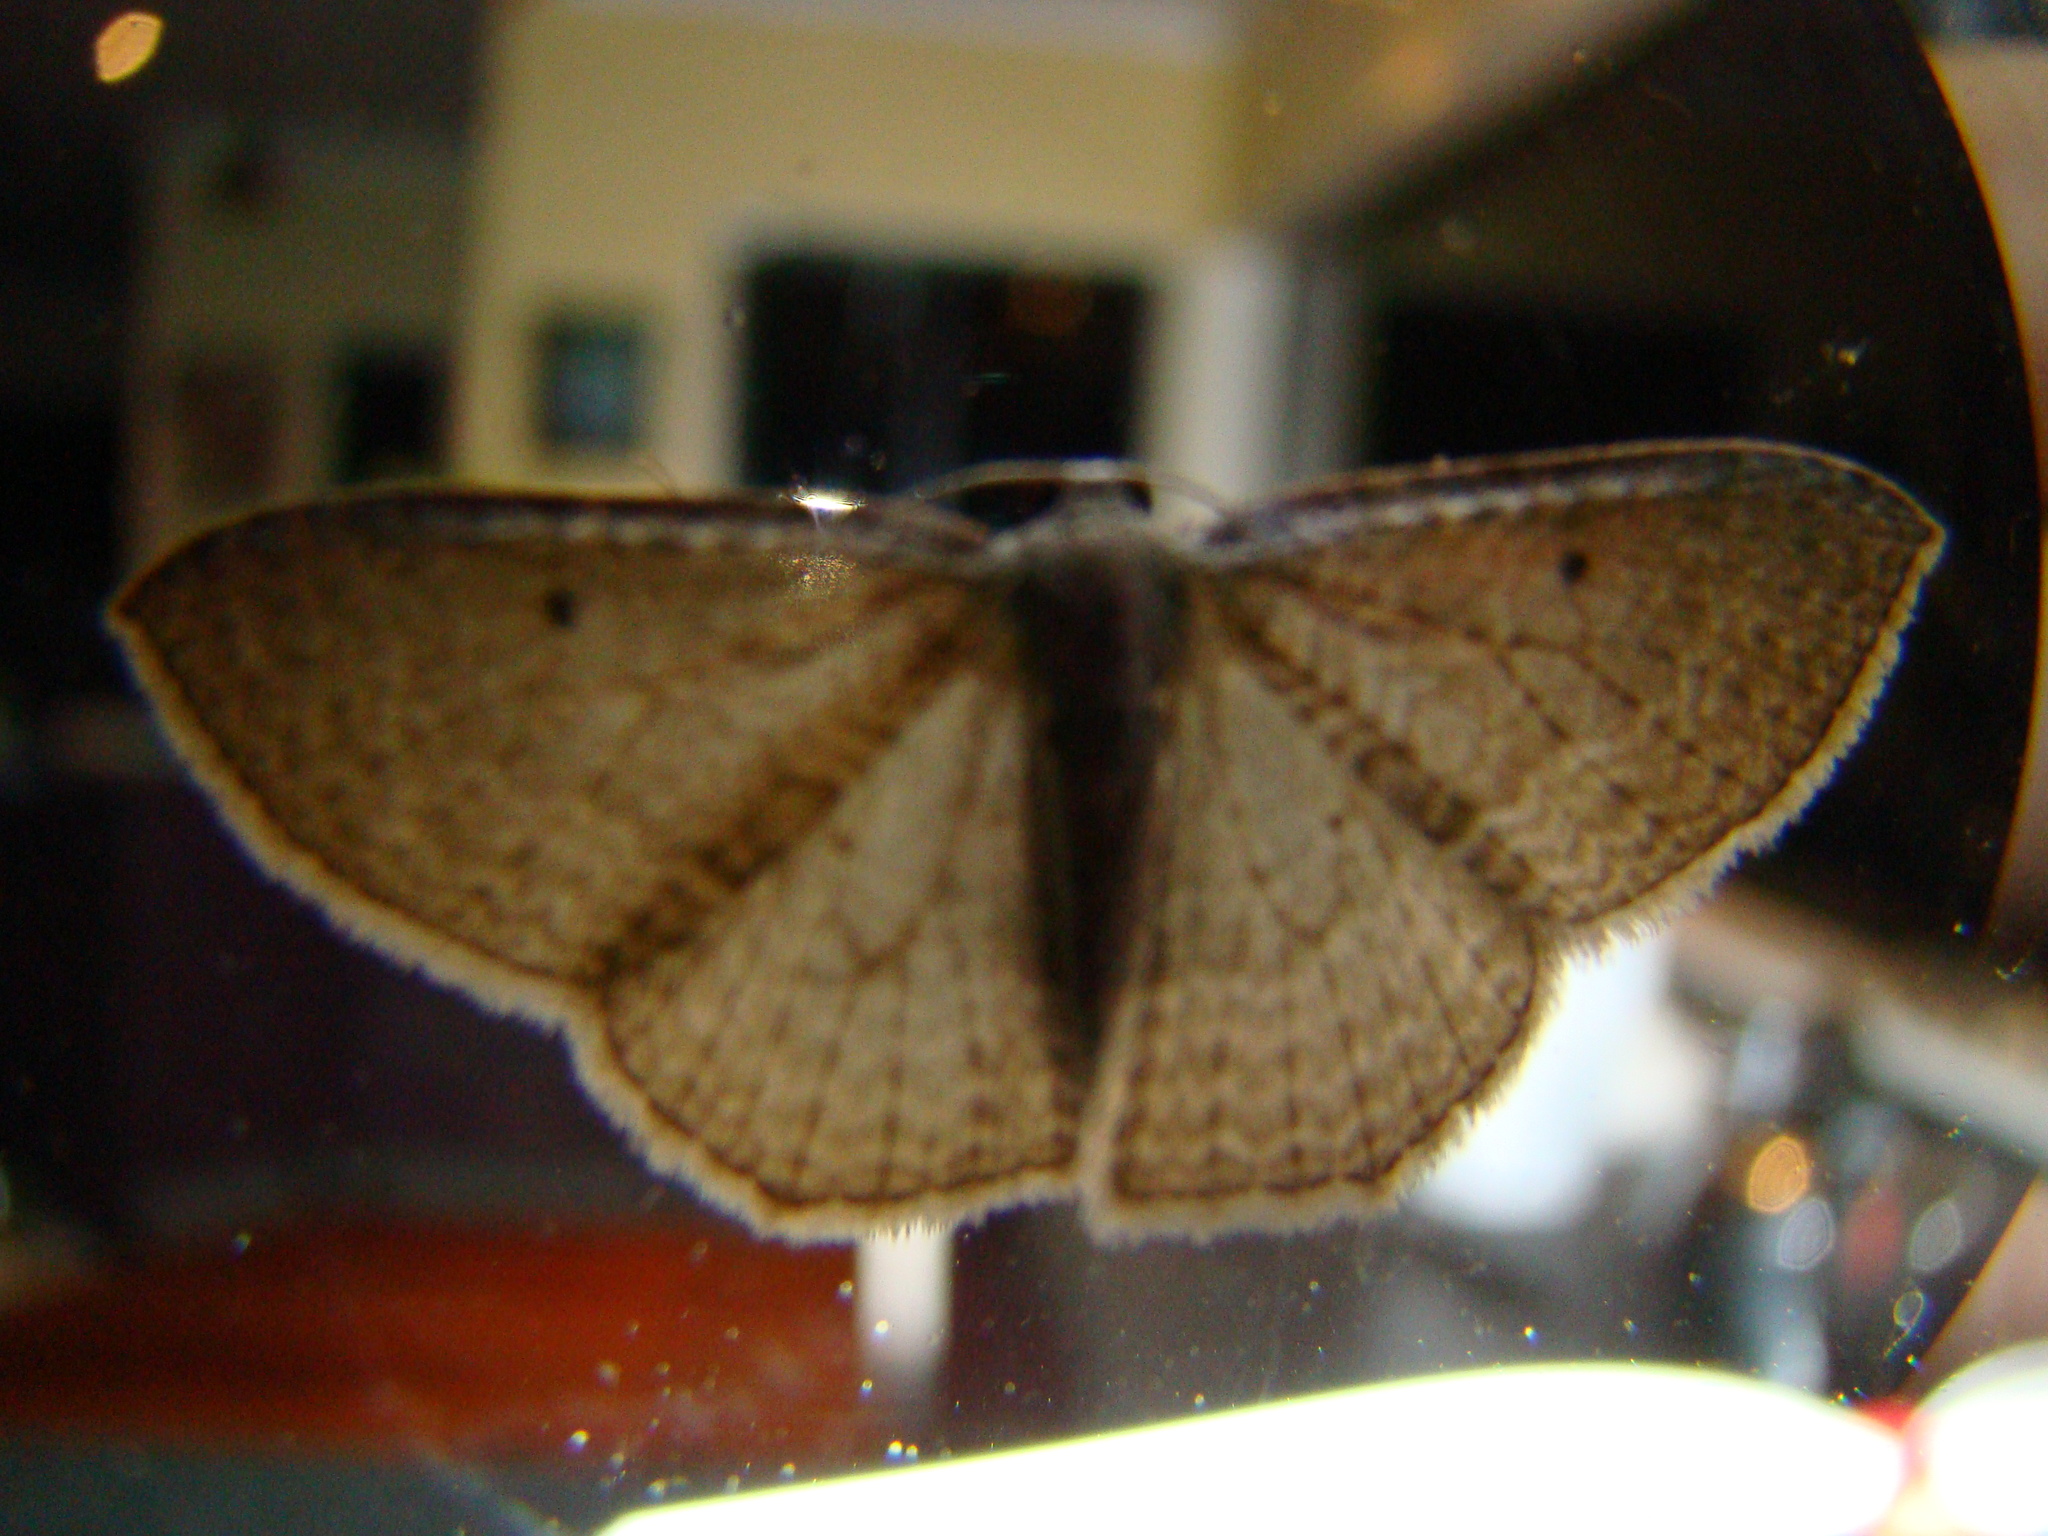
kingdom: Animalia
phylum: Arthropoda
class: Insecta
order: Lepidoptera
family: Geometridae
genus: Poecilasthena
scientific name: Poecilasthena subpurpureata
